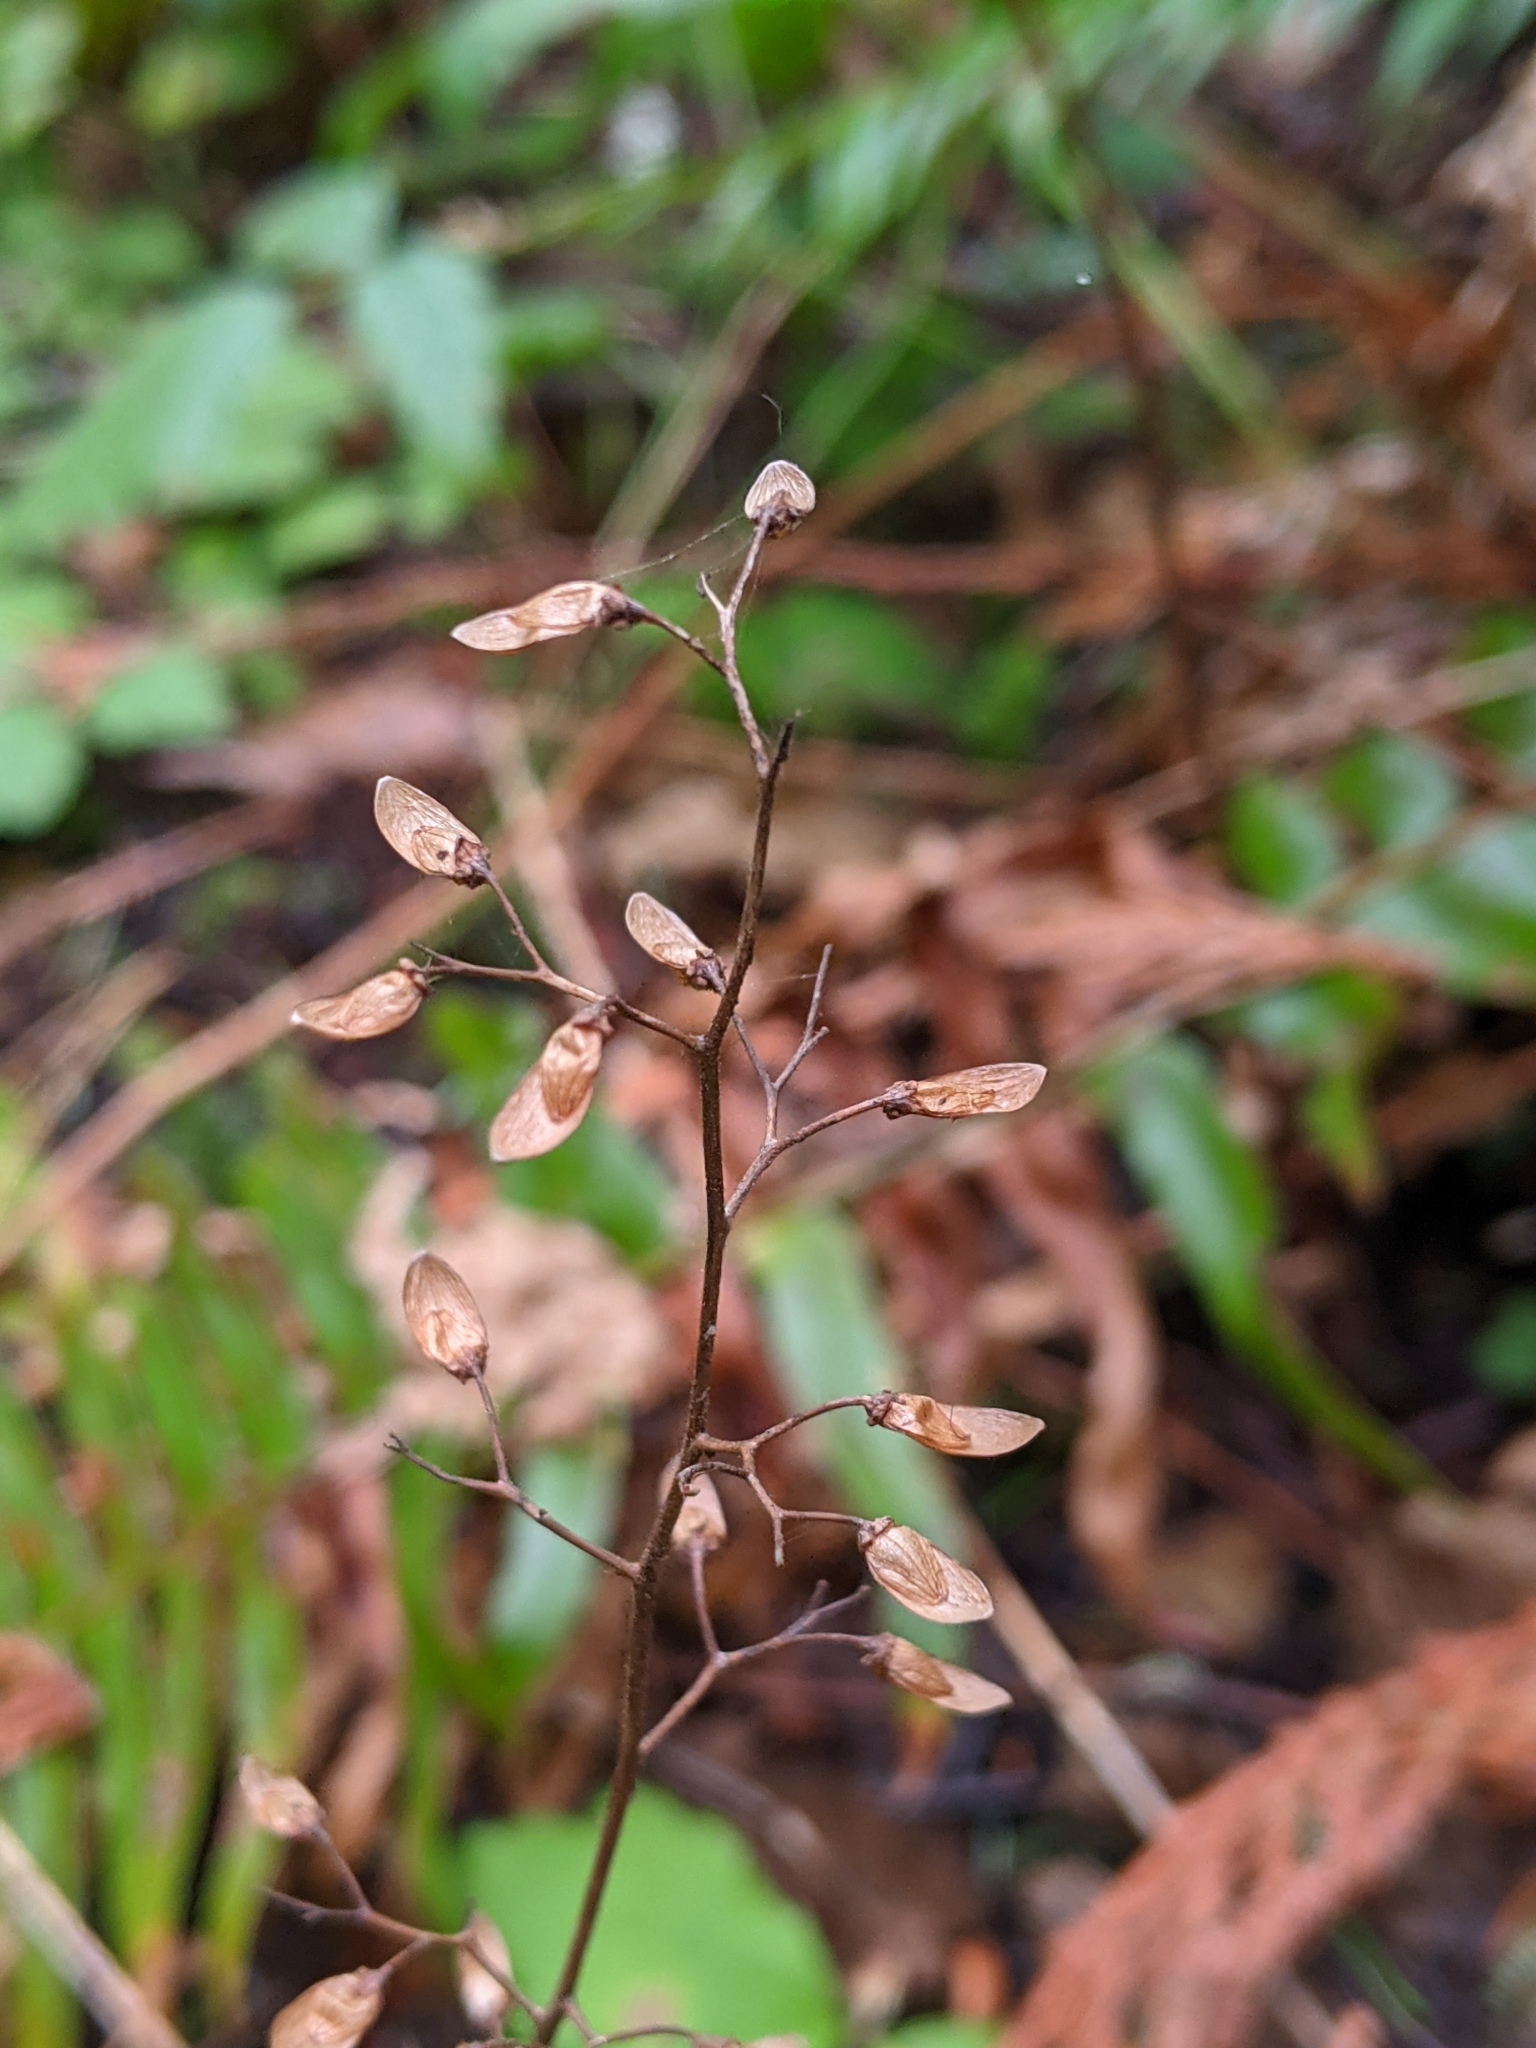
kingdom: Plantae
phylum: Tracheophyta
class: Magnoliopsida
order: Saxifragales
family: Saxifragaceae
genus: Tiarella
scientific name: Tiarella trifoliata
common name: Sugar-scoop
